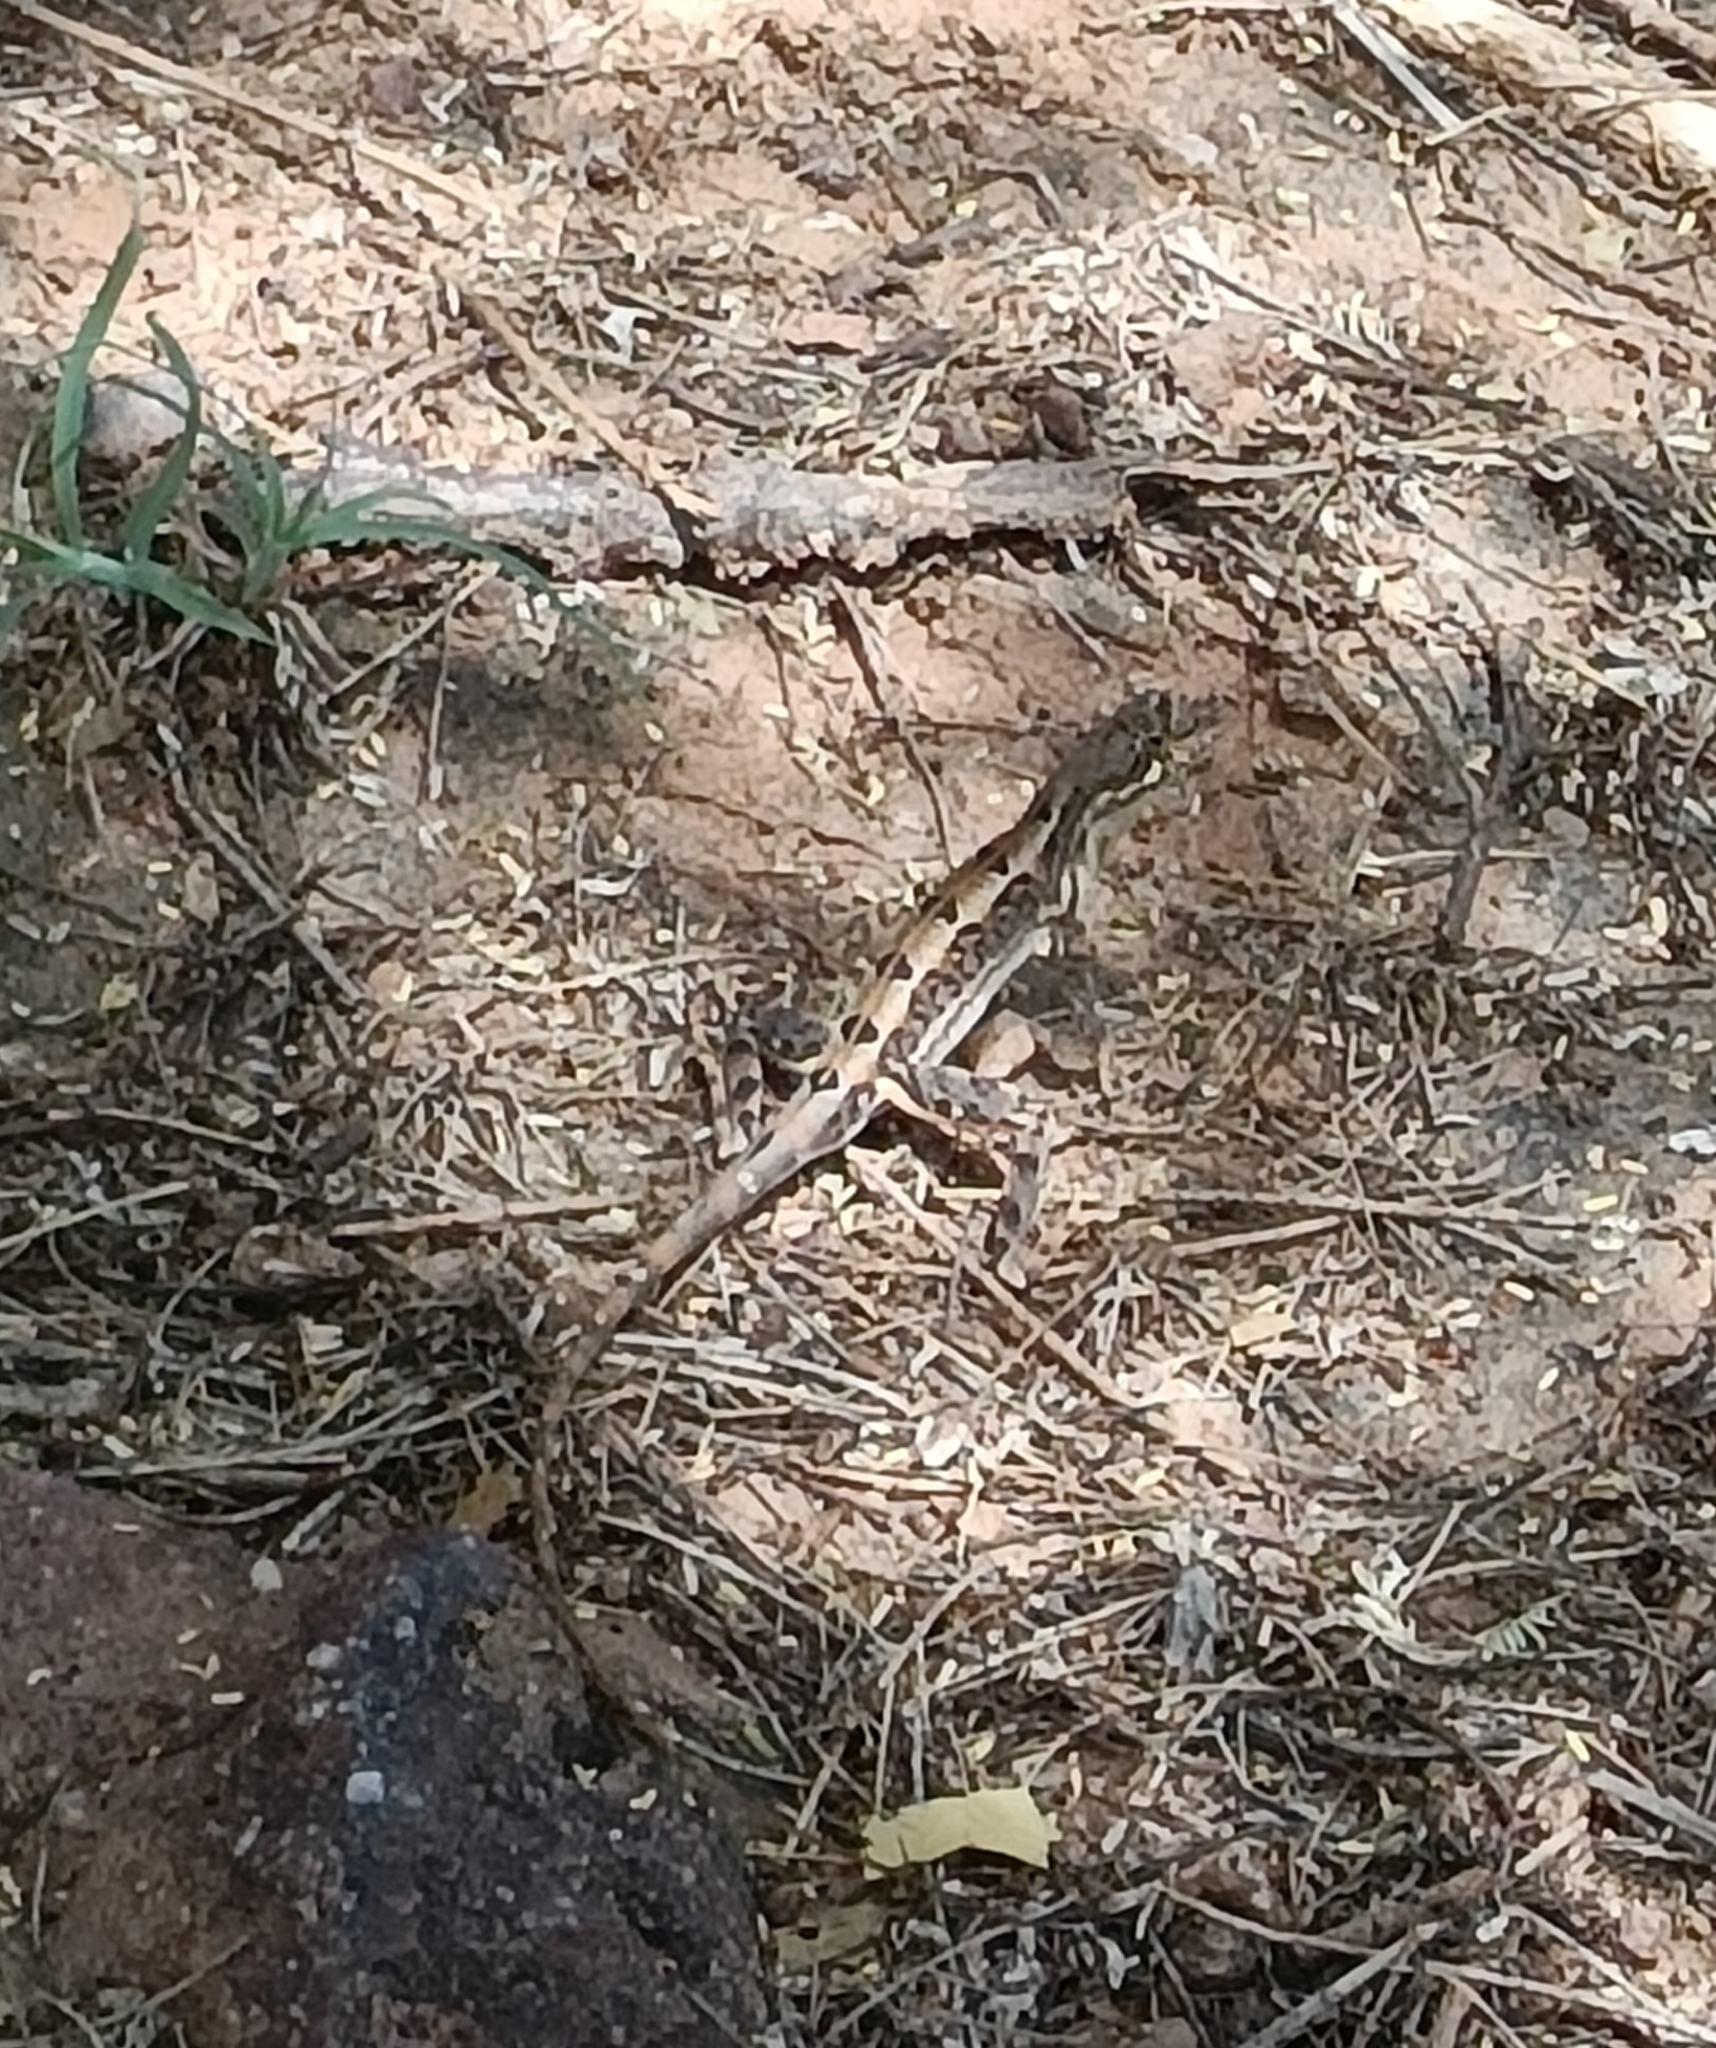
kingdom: Animalia
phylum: Chordata
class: Squamata
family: Agamidae
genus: Sitana
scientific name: Sitana spinaecephalus
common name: Spiny-headed fan-throated lizard
